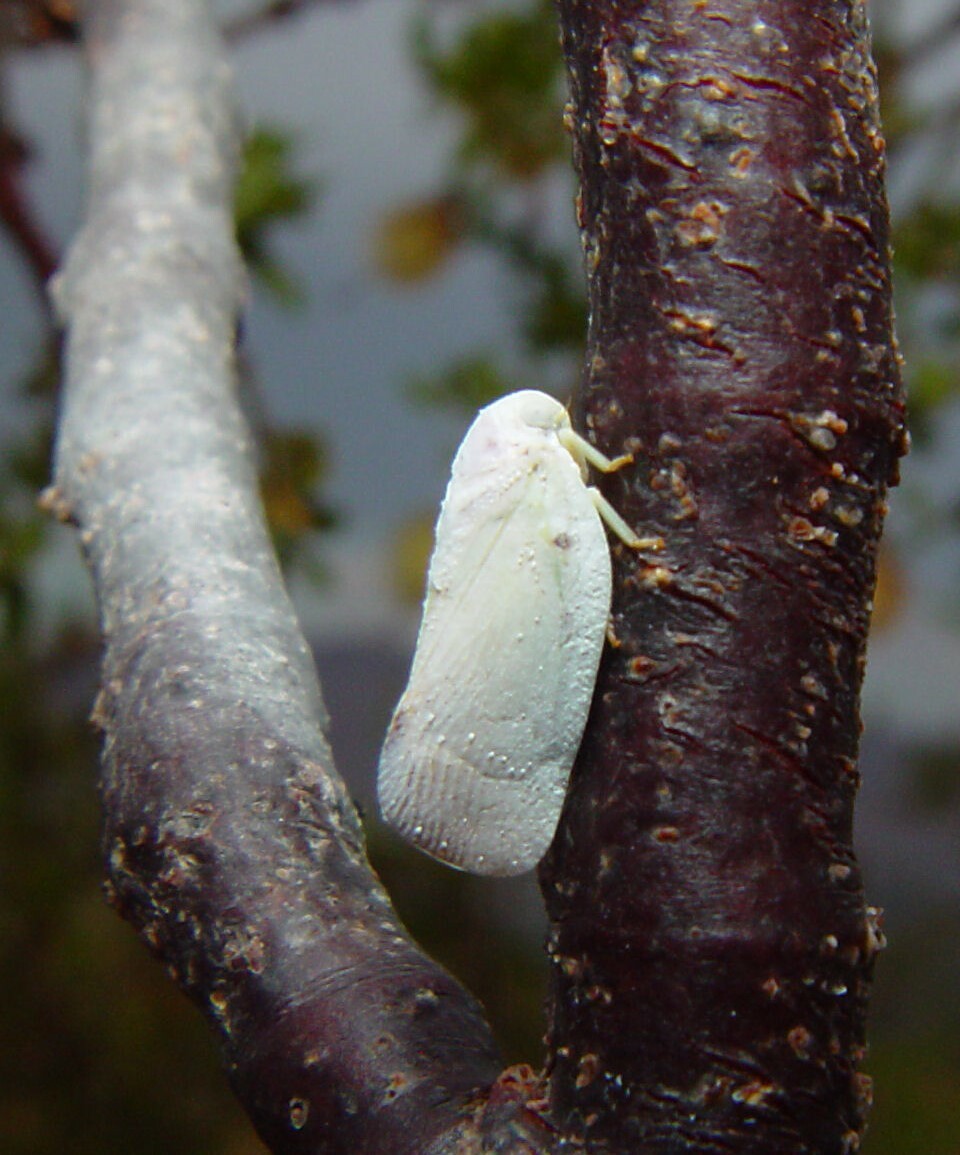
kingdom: Animalia
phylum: Arthropoda
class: Insecta
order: Hemiptera
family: Flatidae
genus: Flatormenis
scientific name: Flatormenis saucia
